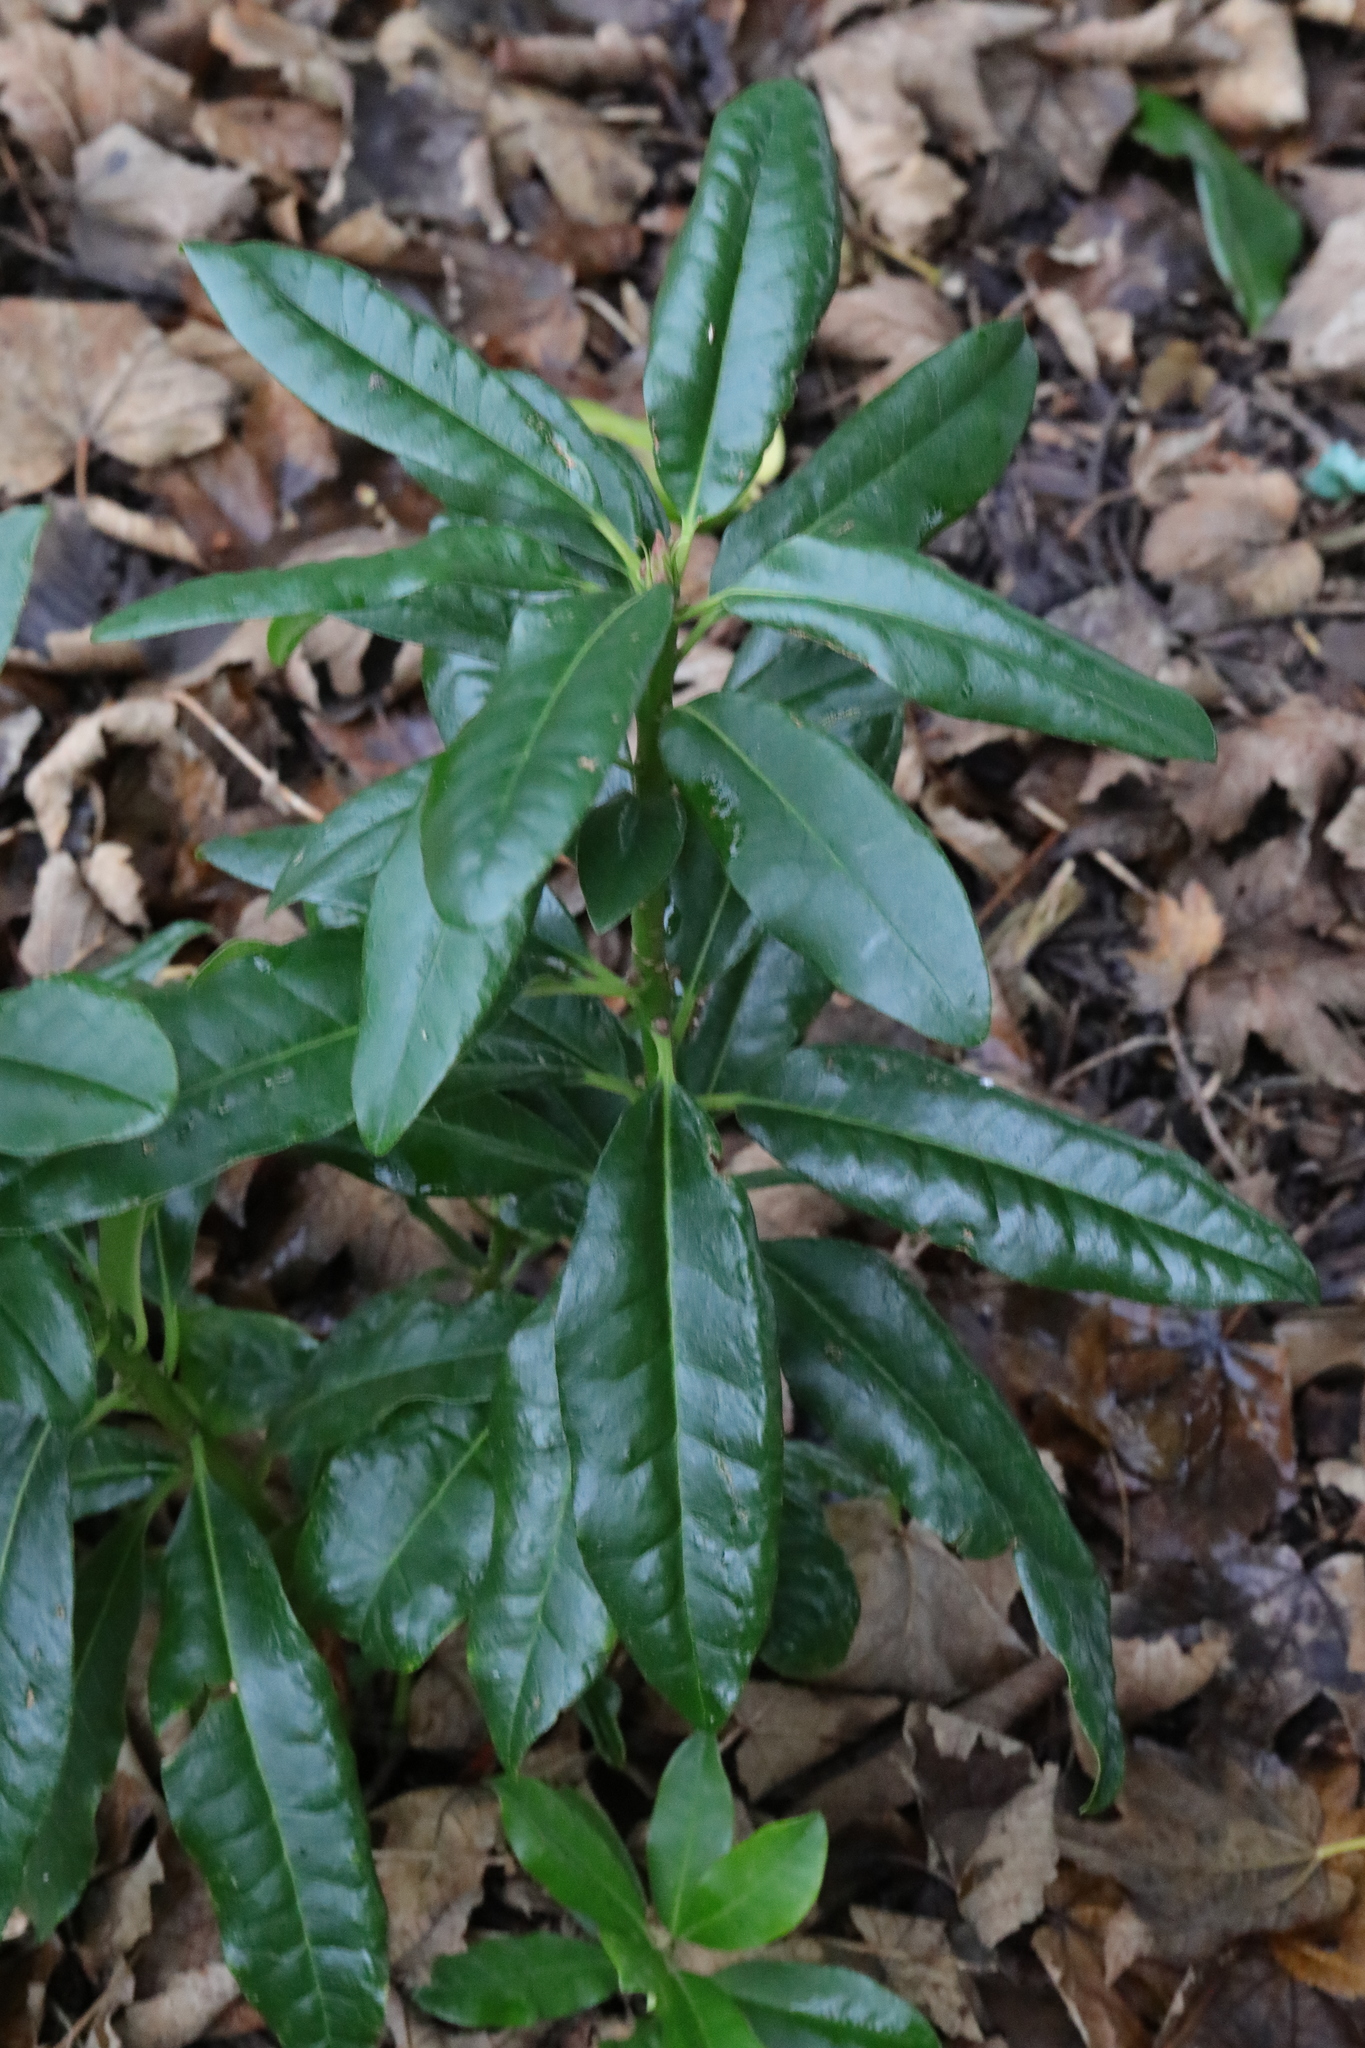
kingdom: Plantae
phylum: Tracheophyta
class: Magnoliopsida
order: Ericales
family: Ericaceae
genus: Rhododendron
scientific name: Rhododendron ponticum
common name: Rhododendron
